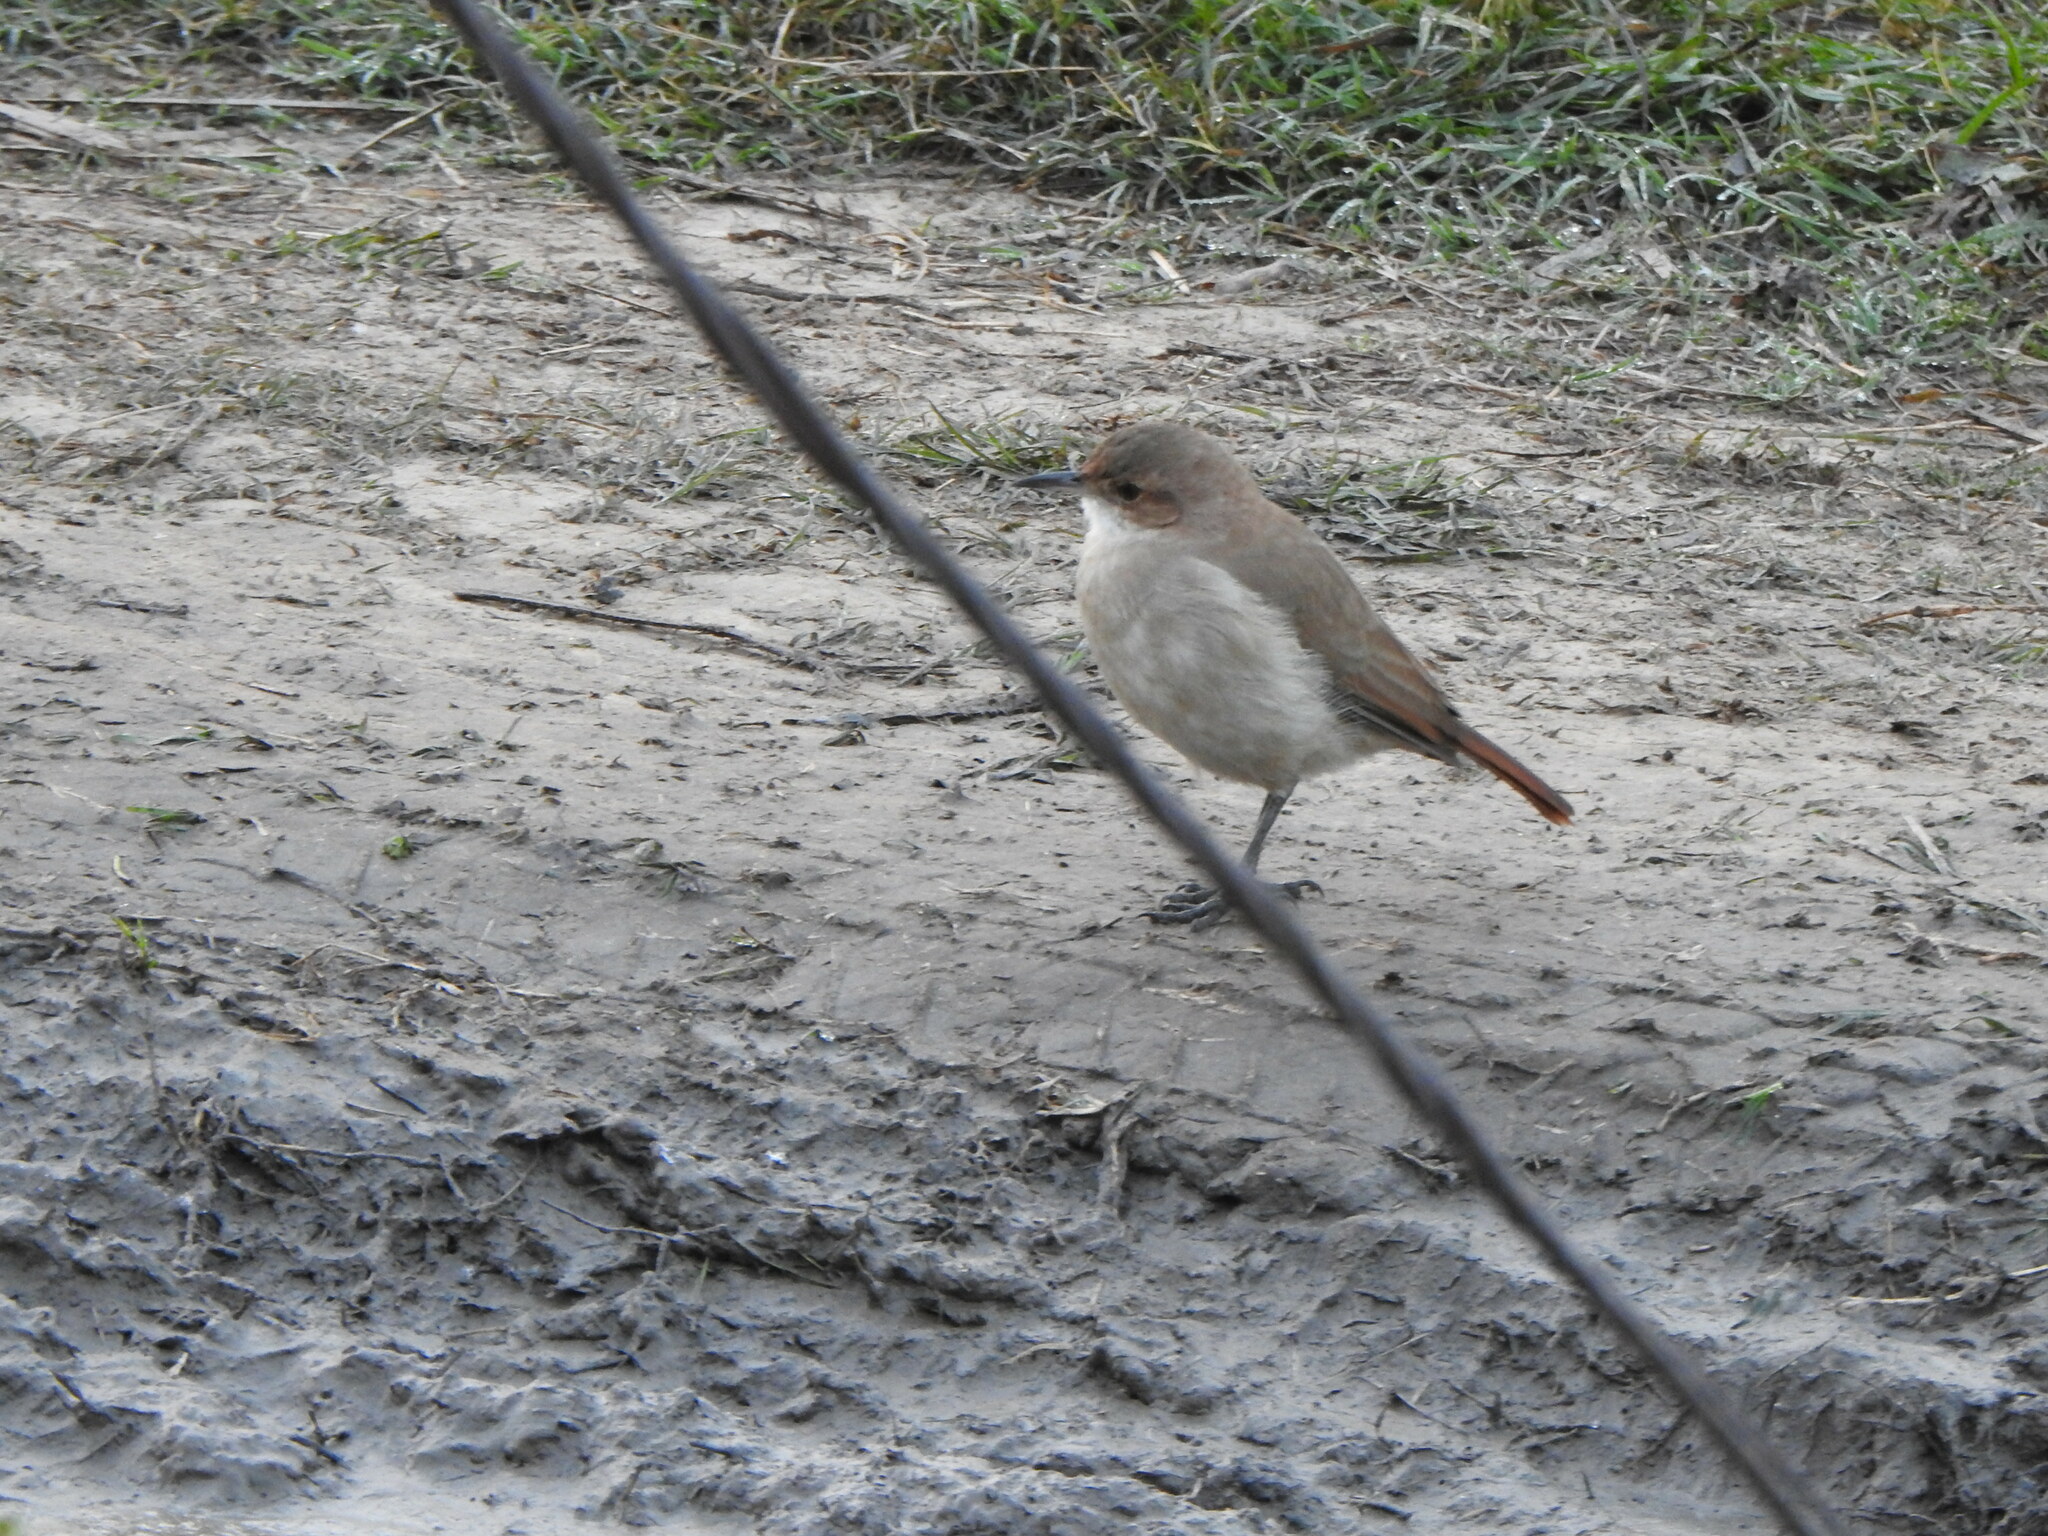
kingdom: Animalia
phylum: Chordata
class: Aves
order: Passeriformes
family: Furnariidae
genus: Furnarius
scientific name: Furnarius rufus
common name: Rufous hornero
